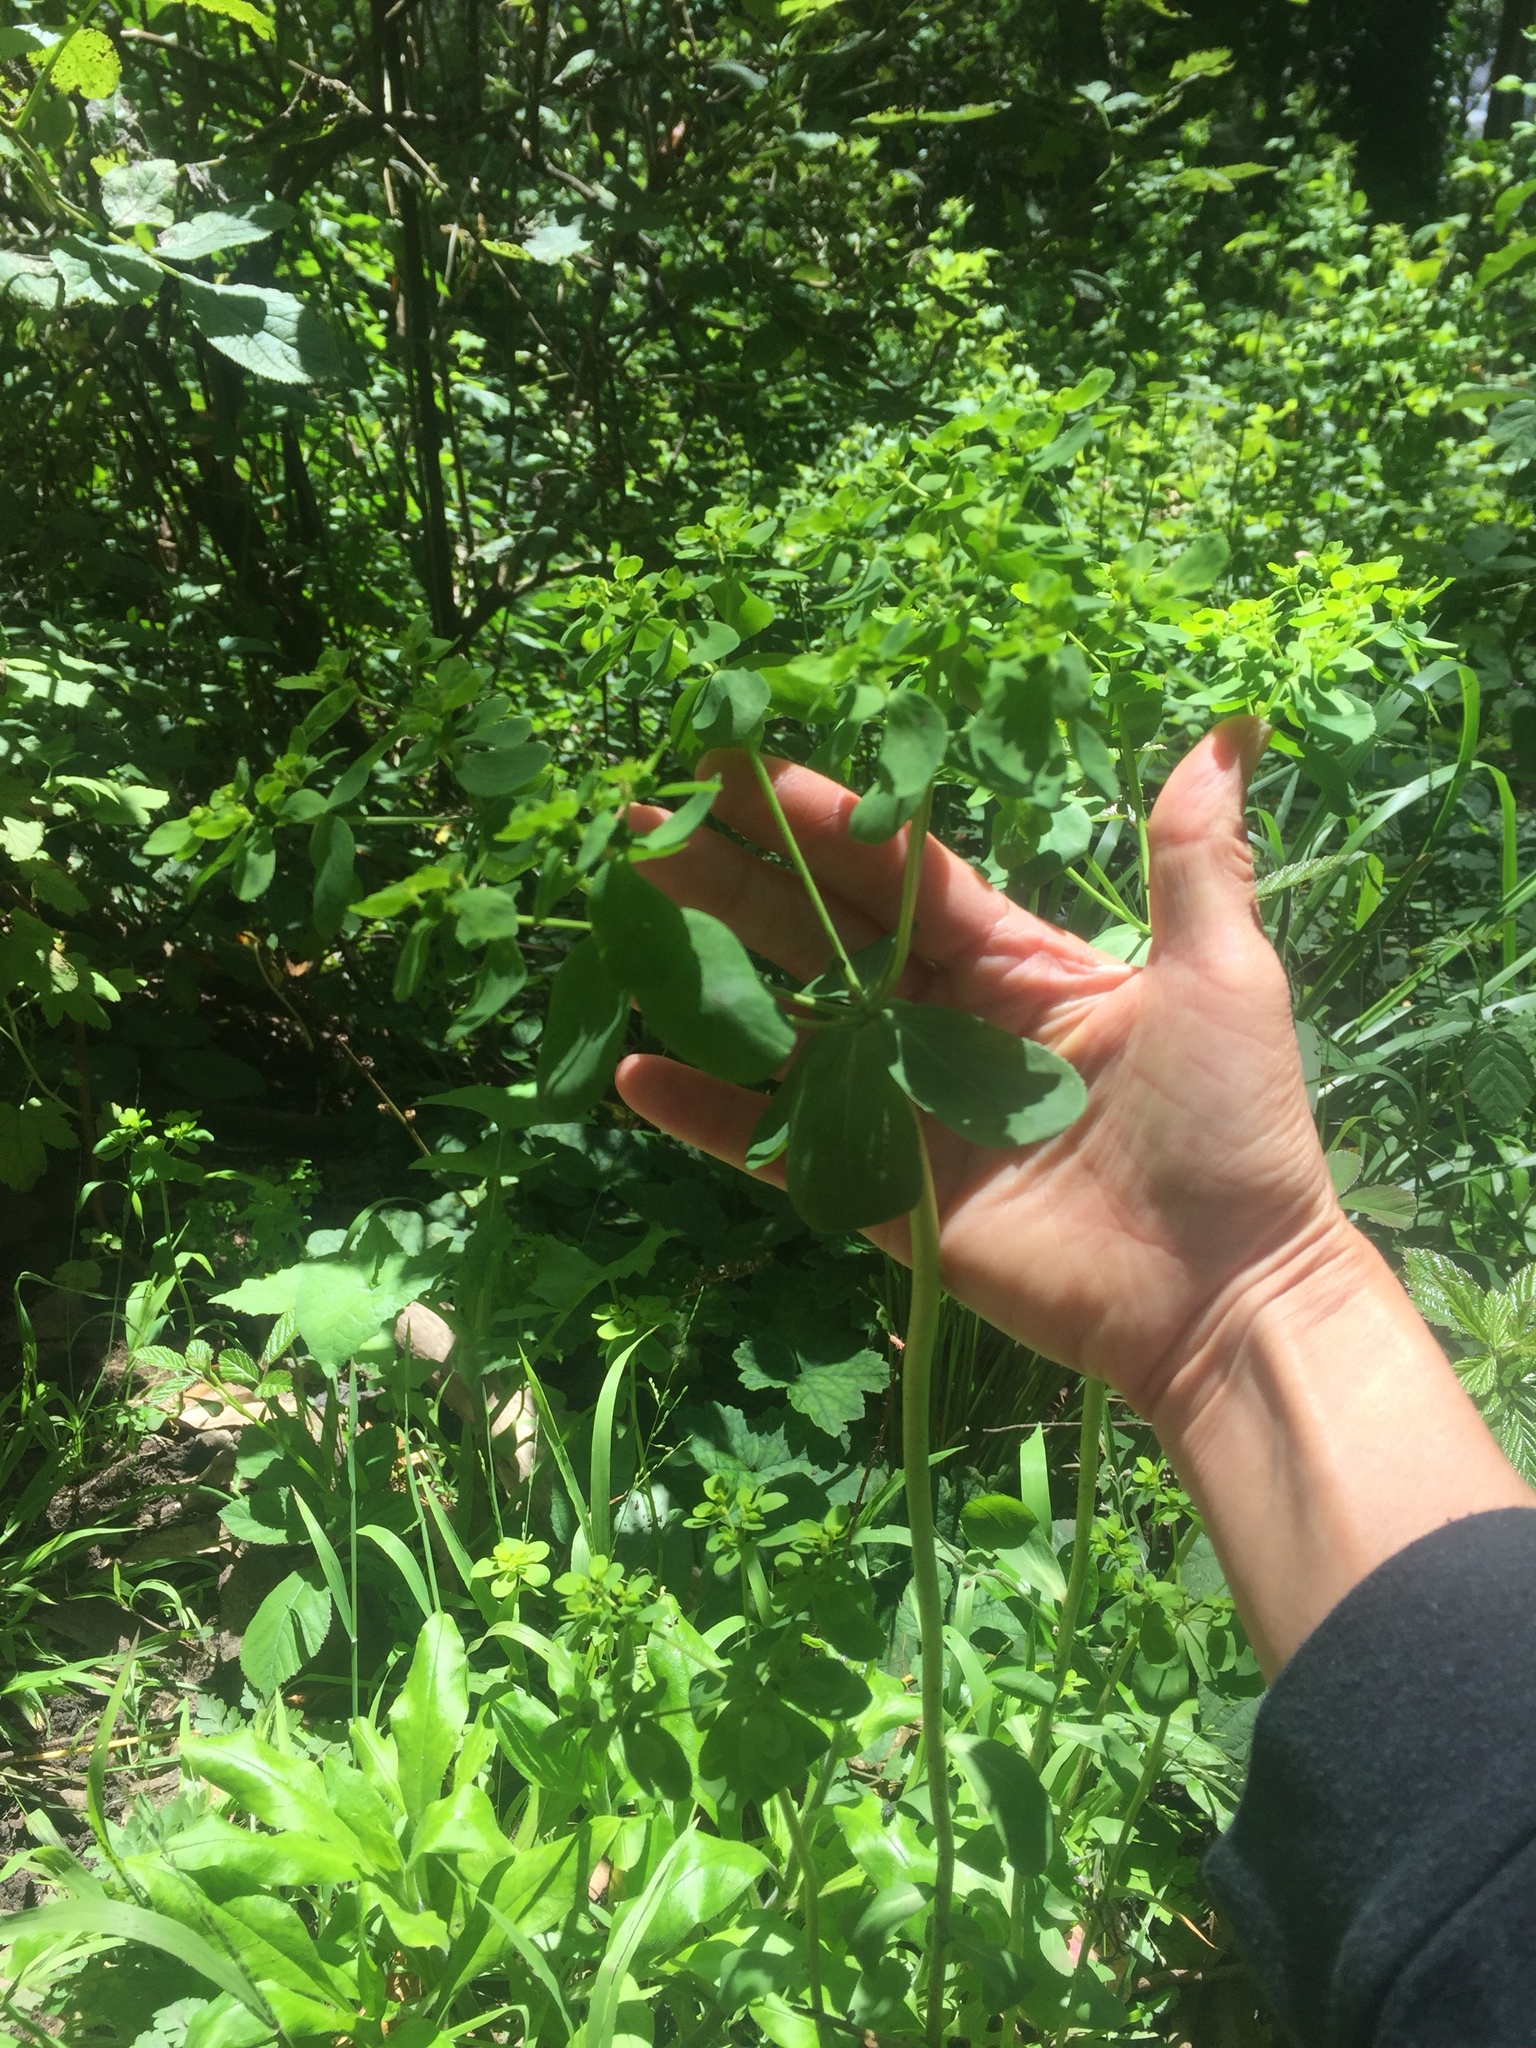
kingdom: Plantae
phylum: Tracheophyta
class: Magnoliopsida
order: Malpighiales
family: Euphorbiaceae
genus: Euphorbia
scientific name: Euphorbia helioscopia
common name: Sun spurge
